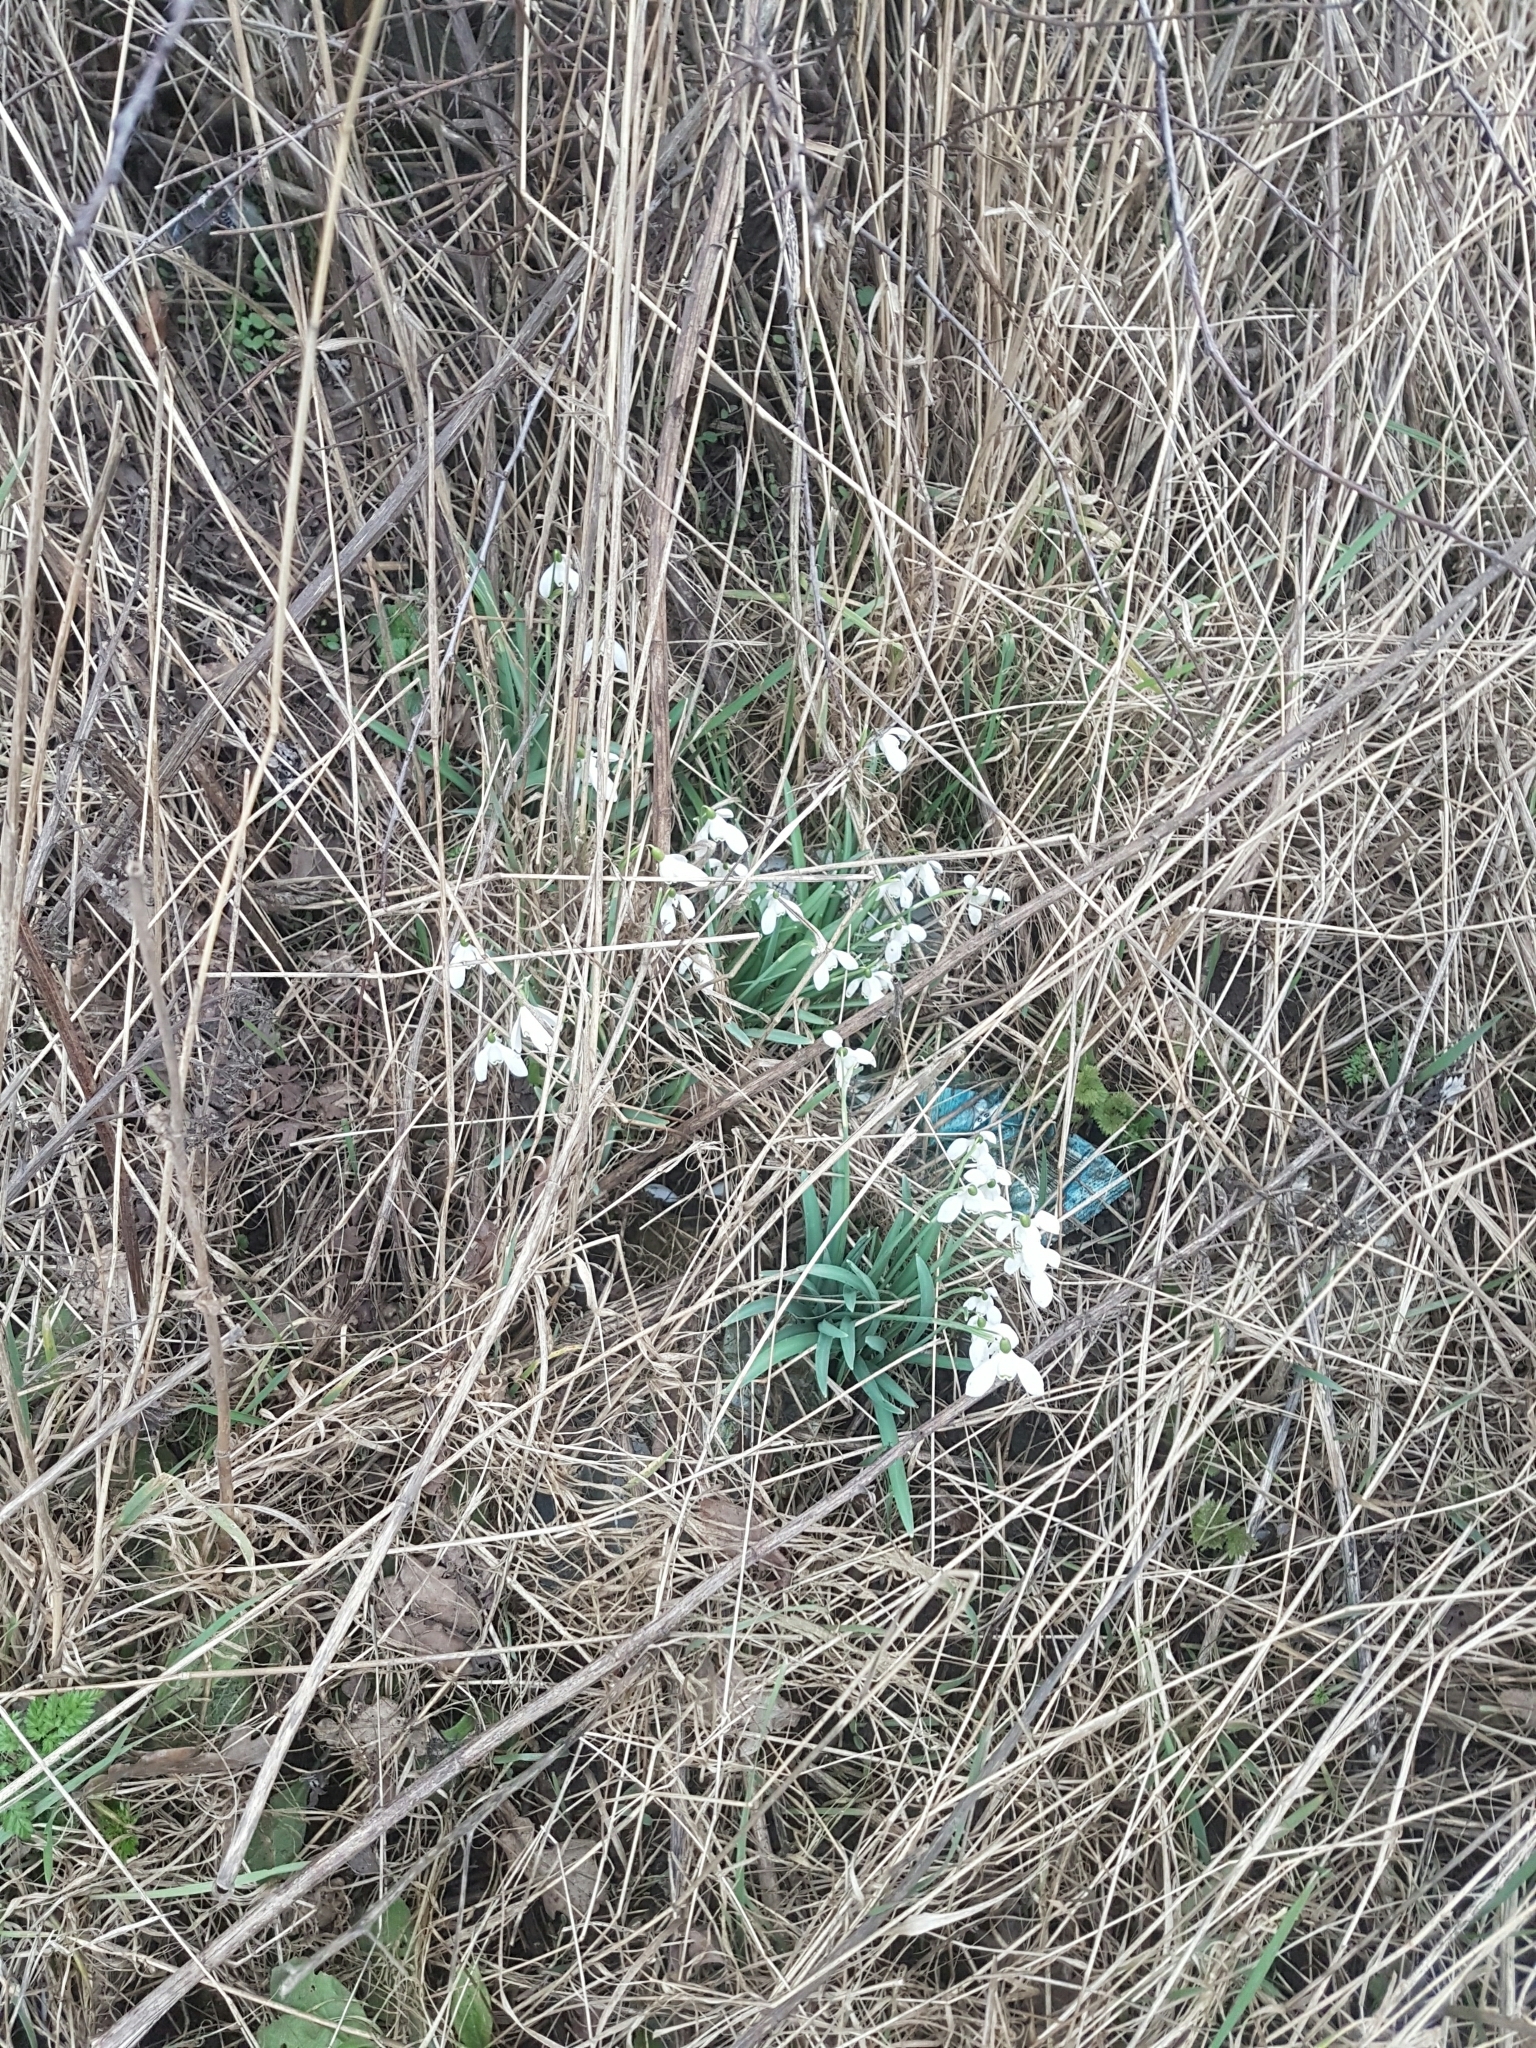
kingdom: Plantae
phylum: Tracheophyta
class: Liliopsida
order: Asparagales
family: Amaryllidaceae
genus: Galanthus
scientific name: Galanthus nivalis
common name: Snowdrop
